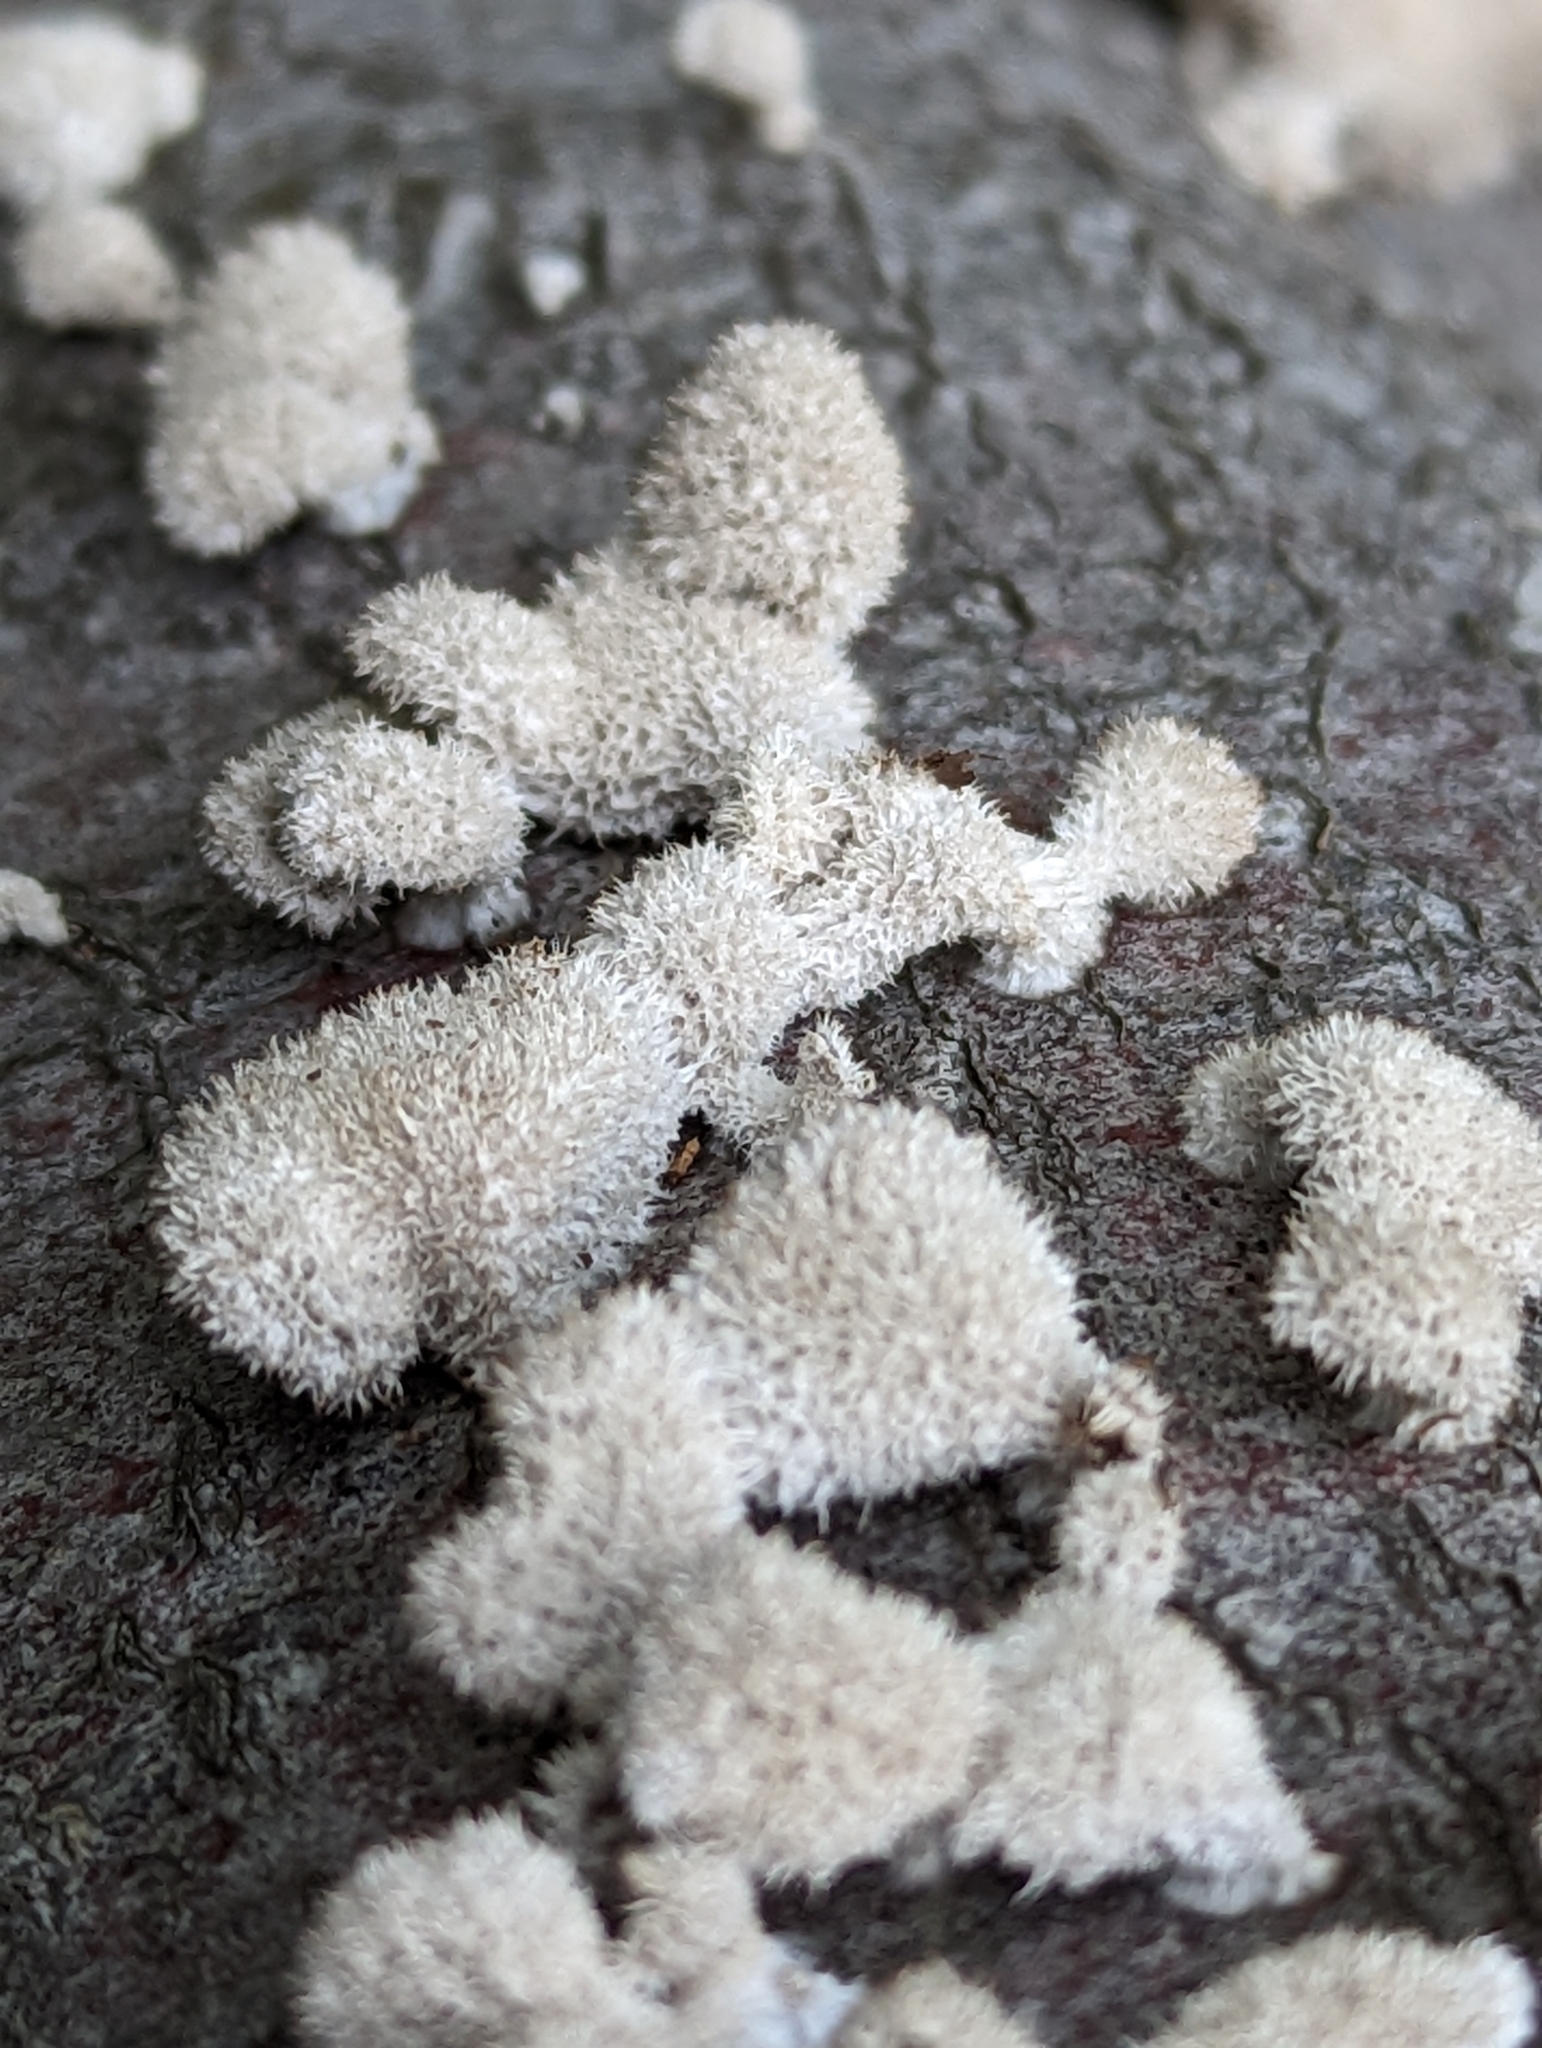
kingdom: Fungi
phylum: Basidiomycota
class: Agaricomycetes
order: Agaricales
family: Schizophyllaceae
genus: Schizophyllum
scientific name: Schizophyllum commune
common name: Common porecrust
